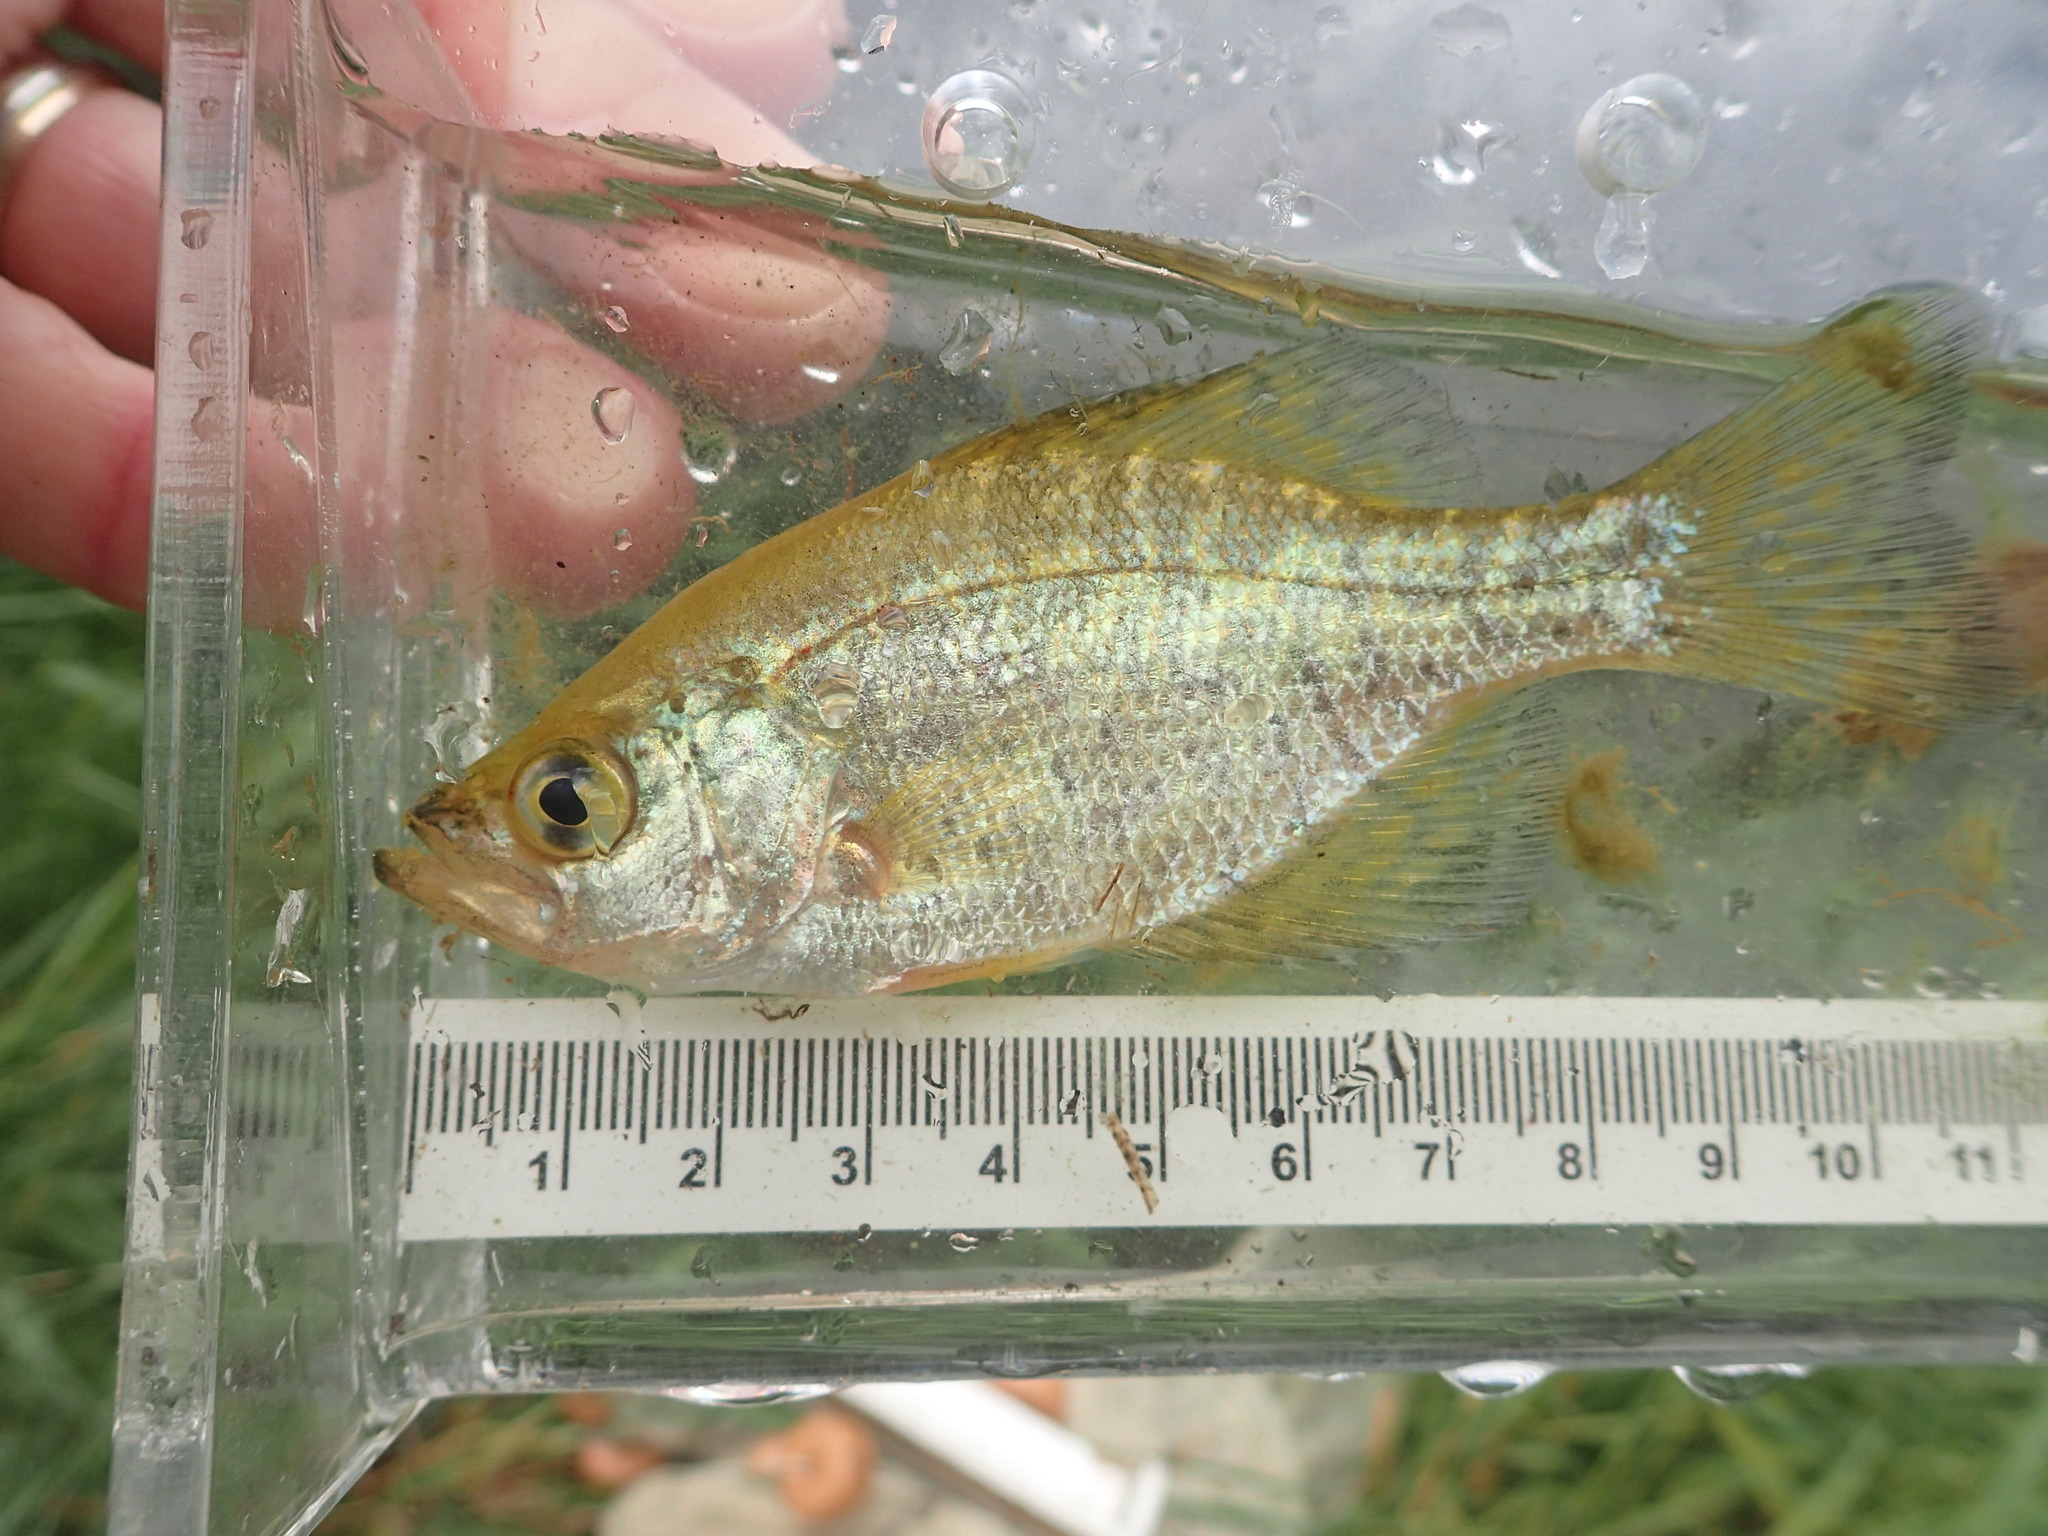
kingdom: Animalia
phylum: Chordata
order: Perciformes
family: Centrarchidae
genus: Pomoxis
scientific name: Pomoxis nigromaculatus
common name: Black crappie
